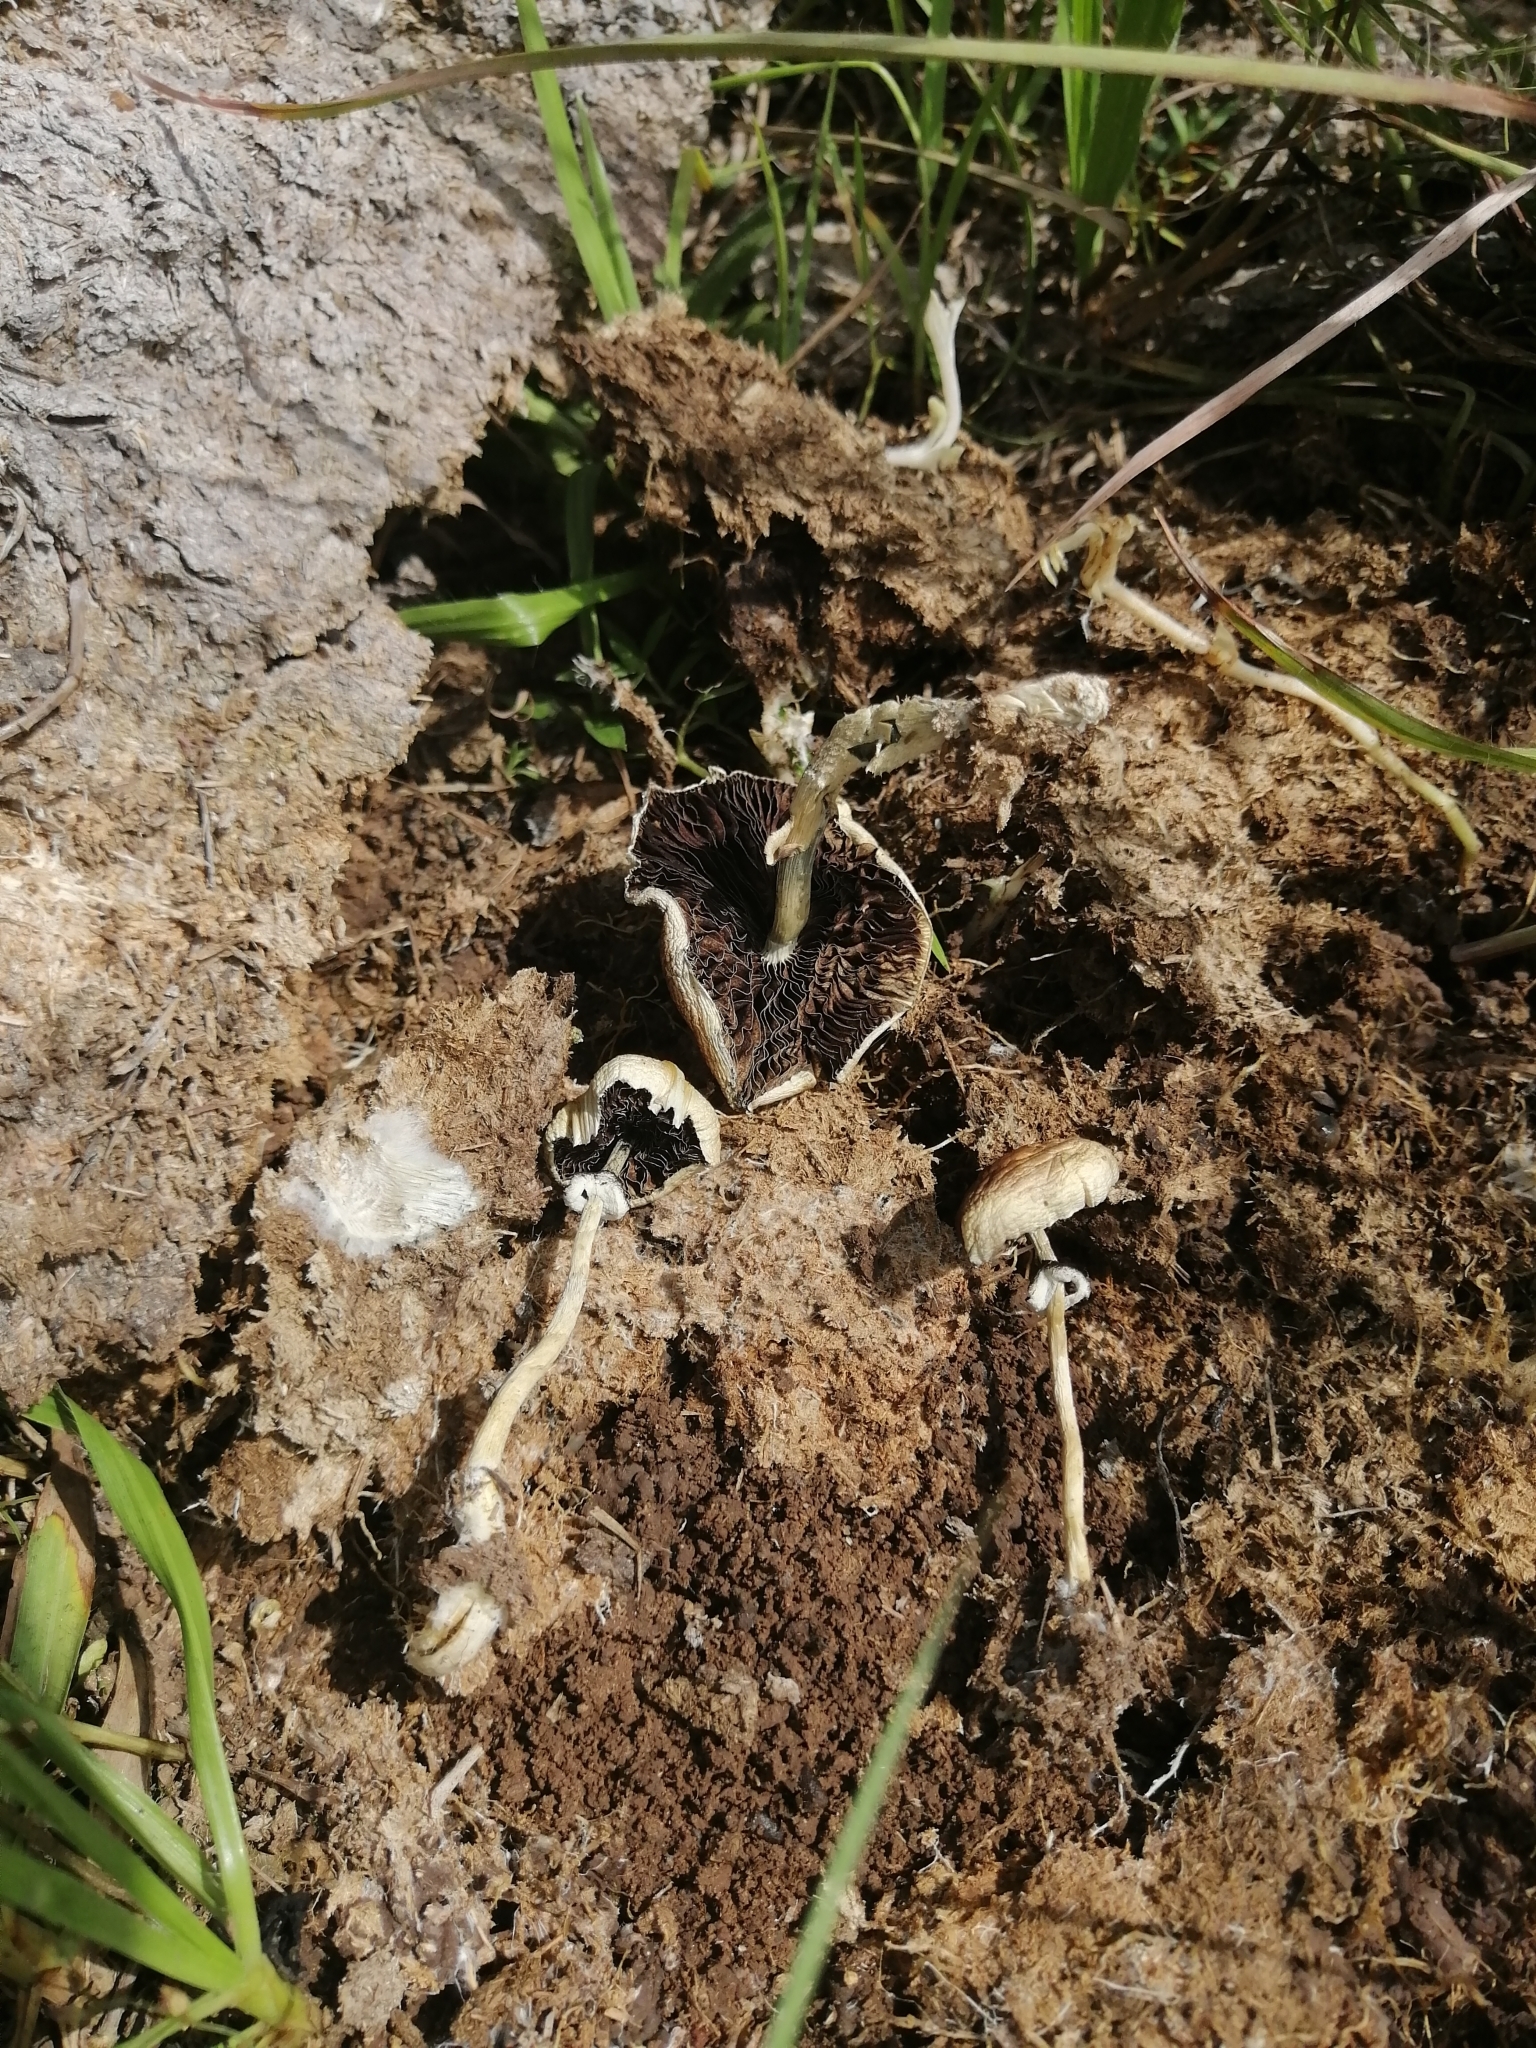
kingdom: Fungi
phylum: Basidiomycota
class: Agaricomycetes
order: Agaricales
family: Hymenogastraceae
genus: Psilocybe
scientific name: Psilocybe cubensis
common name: Golden brownie
